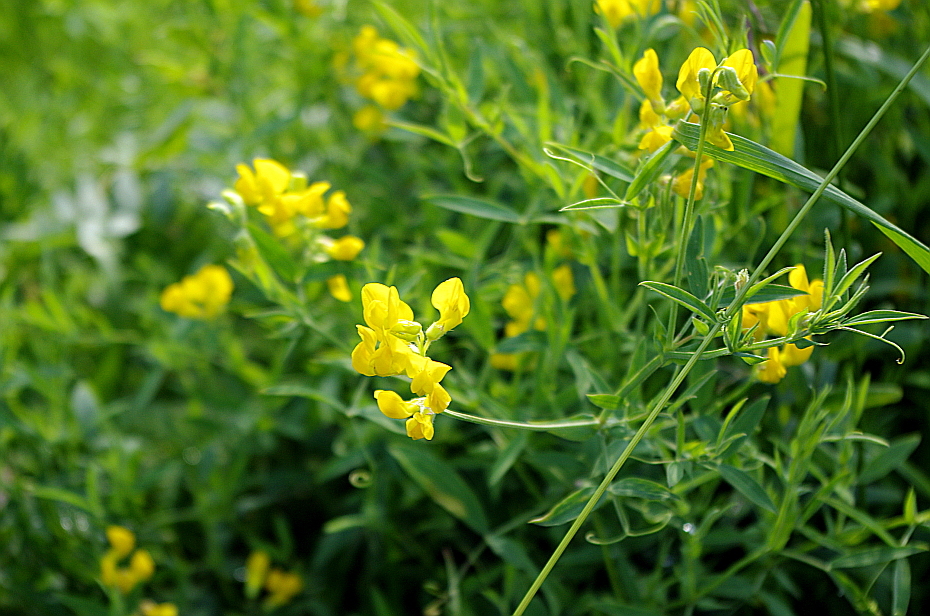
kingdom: Plantae
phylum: Tracheophyta
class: Magnoliopsida
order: Fabales
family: Fabaceae
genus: Lathyrus
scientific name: Lathyrus pratensis
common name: Meadow vetchling
